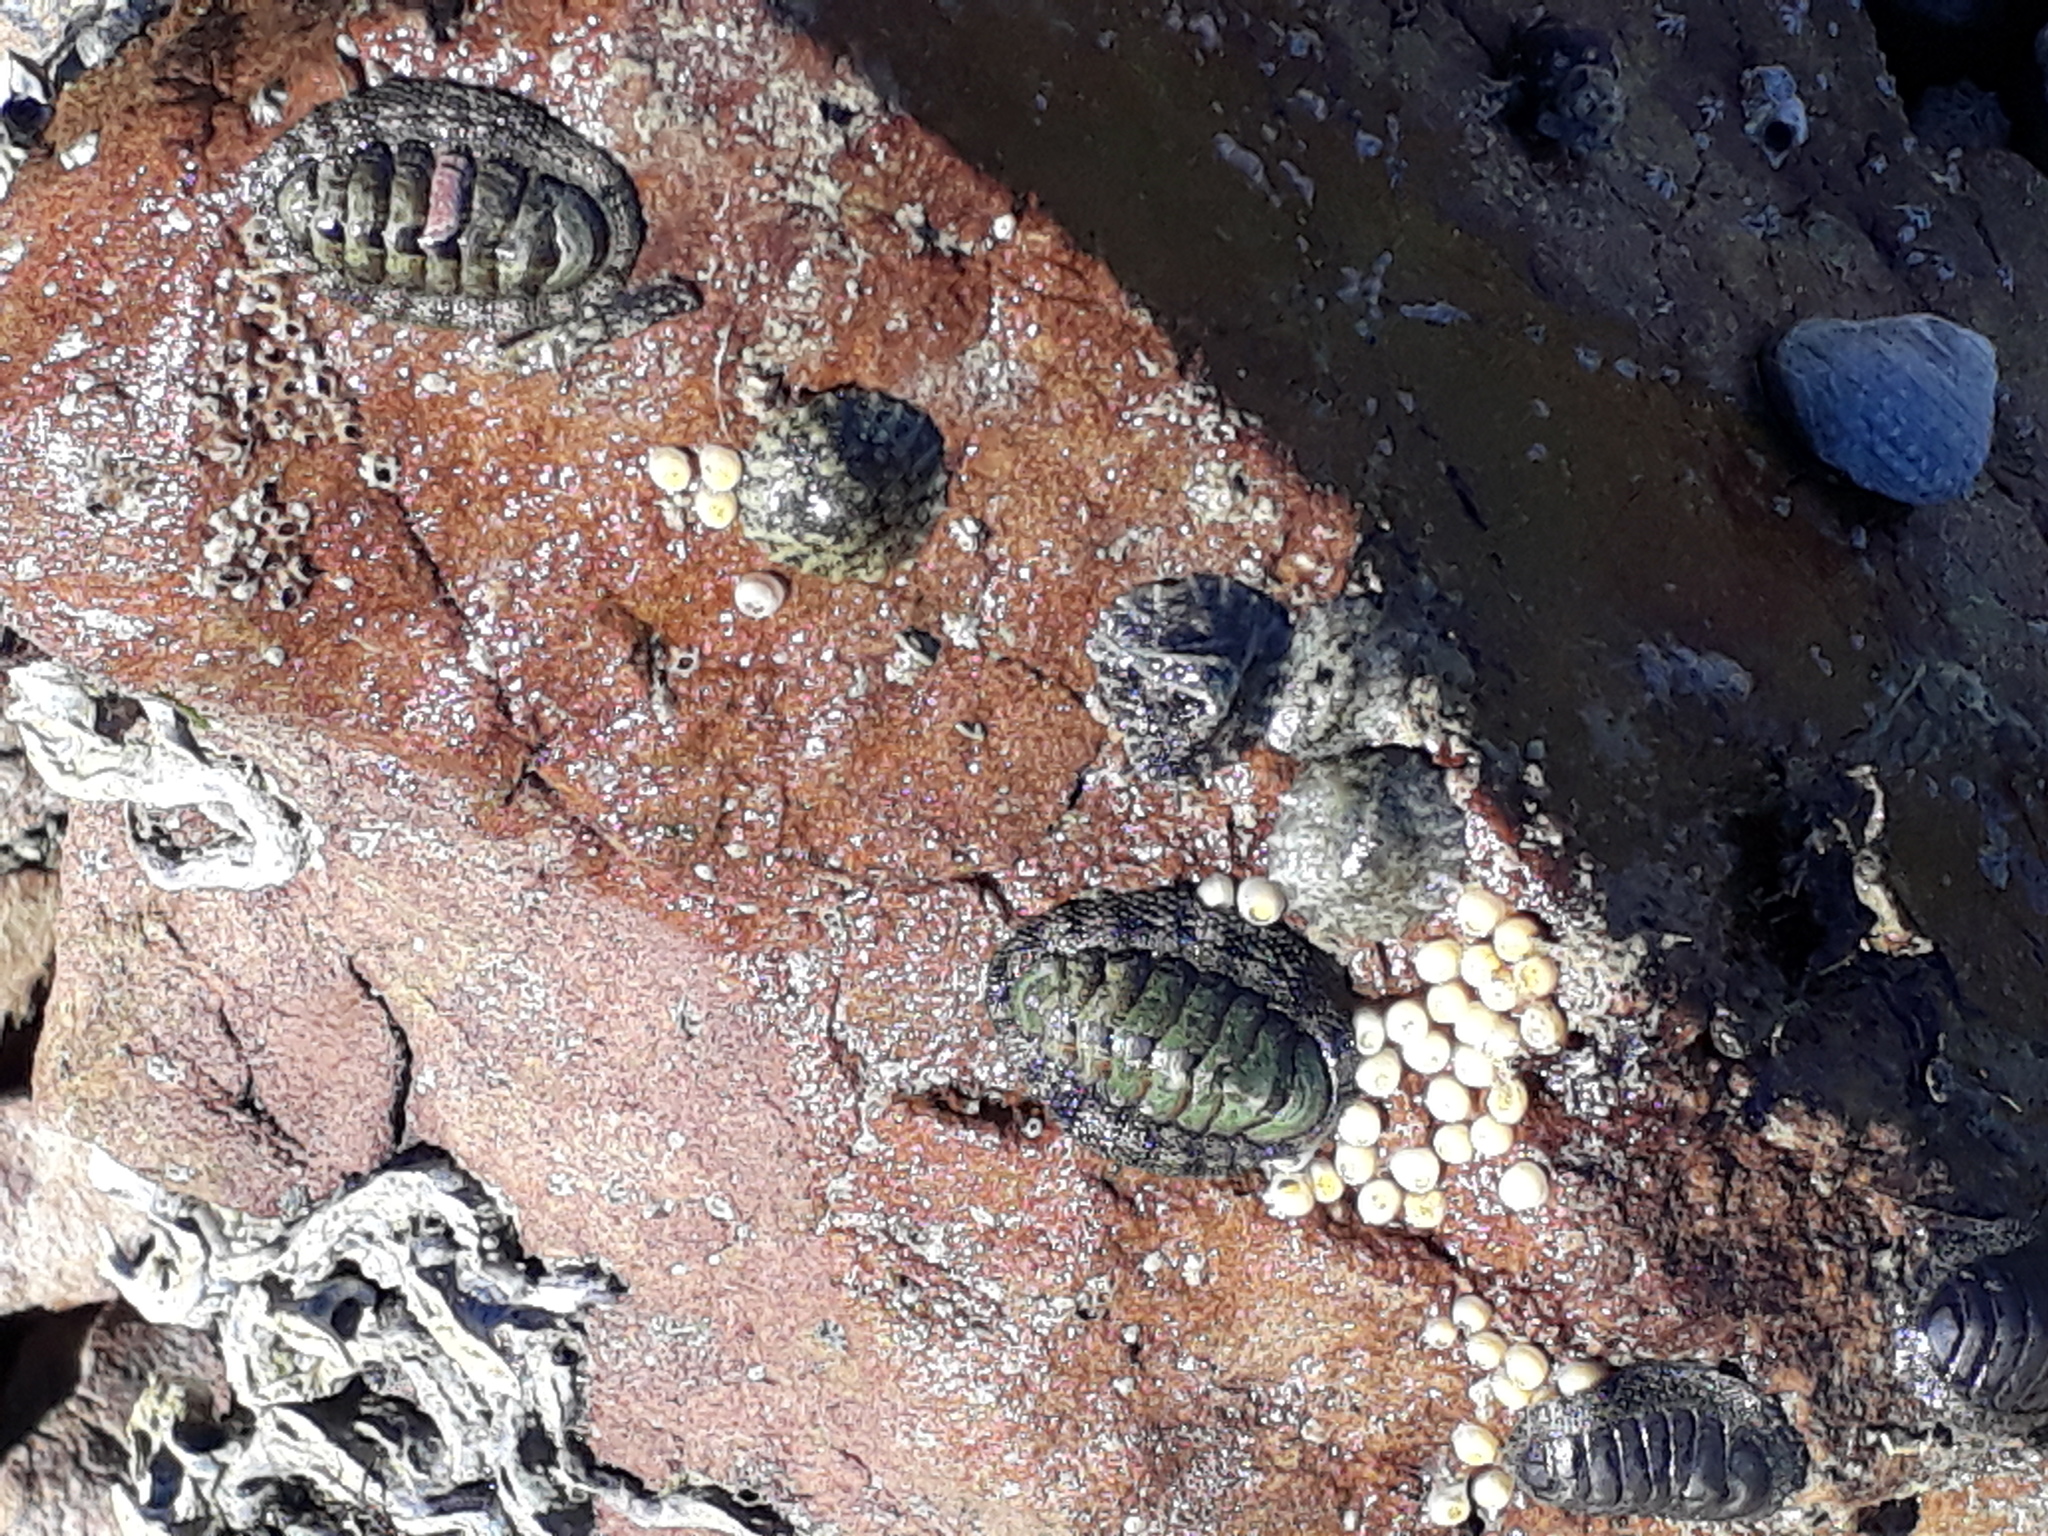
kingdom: Animalia
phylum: Mollusca
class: Gastropoda
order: Neogastropoda
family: Muricidae
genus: Haustrum
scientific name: Haustrum
